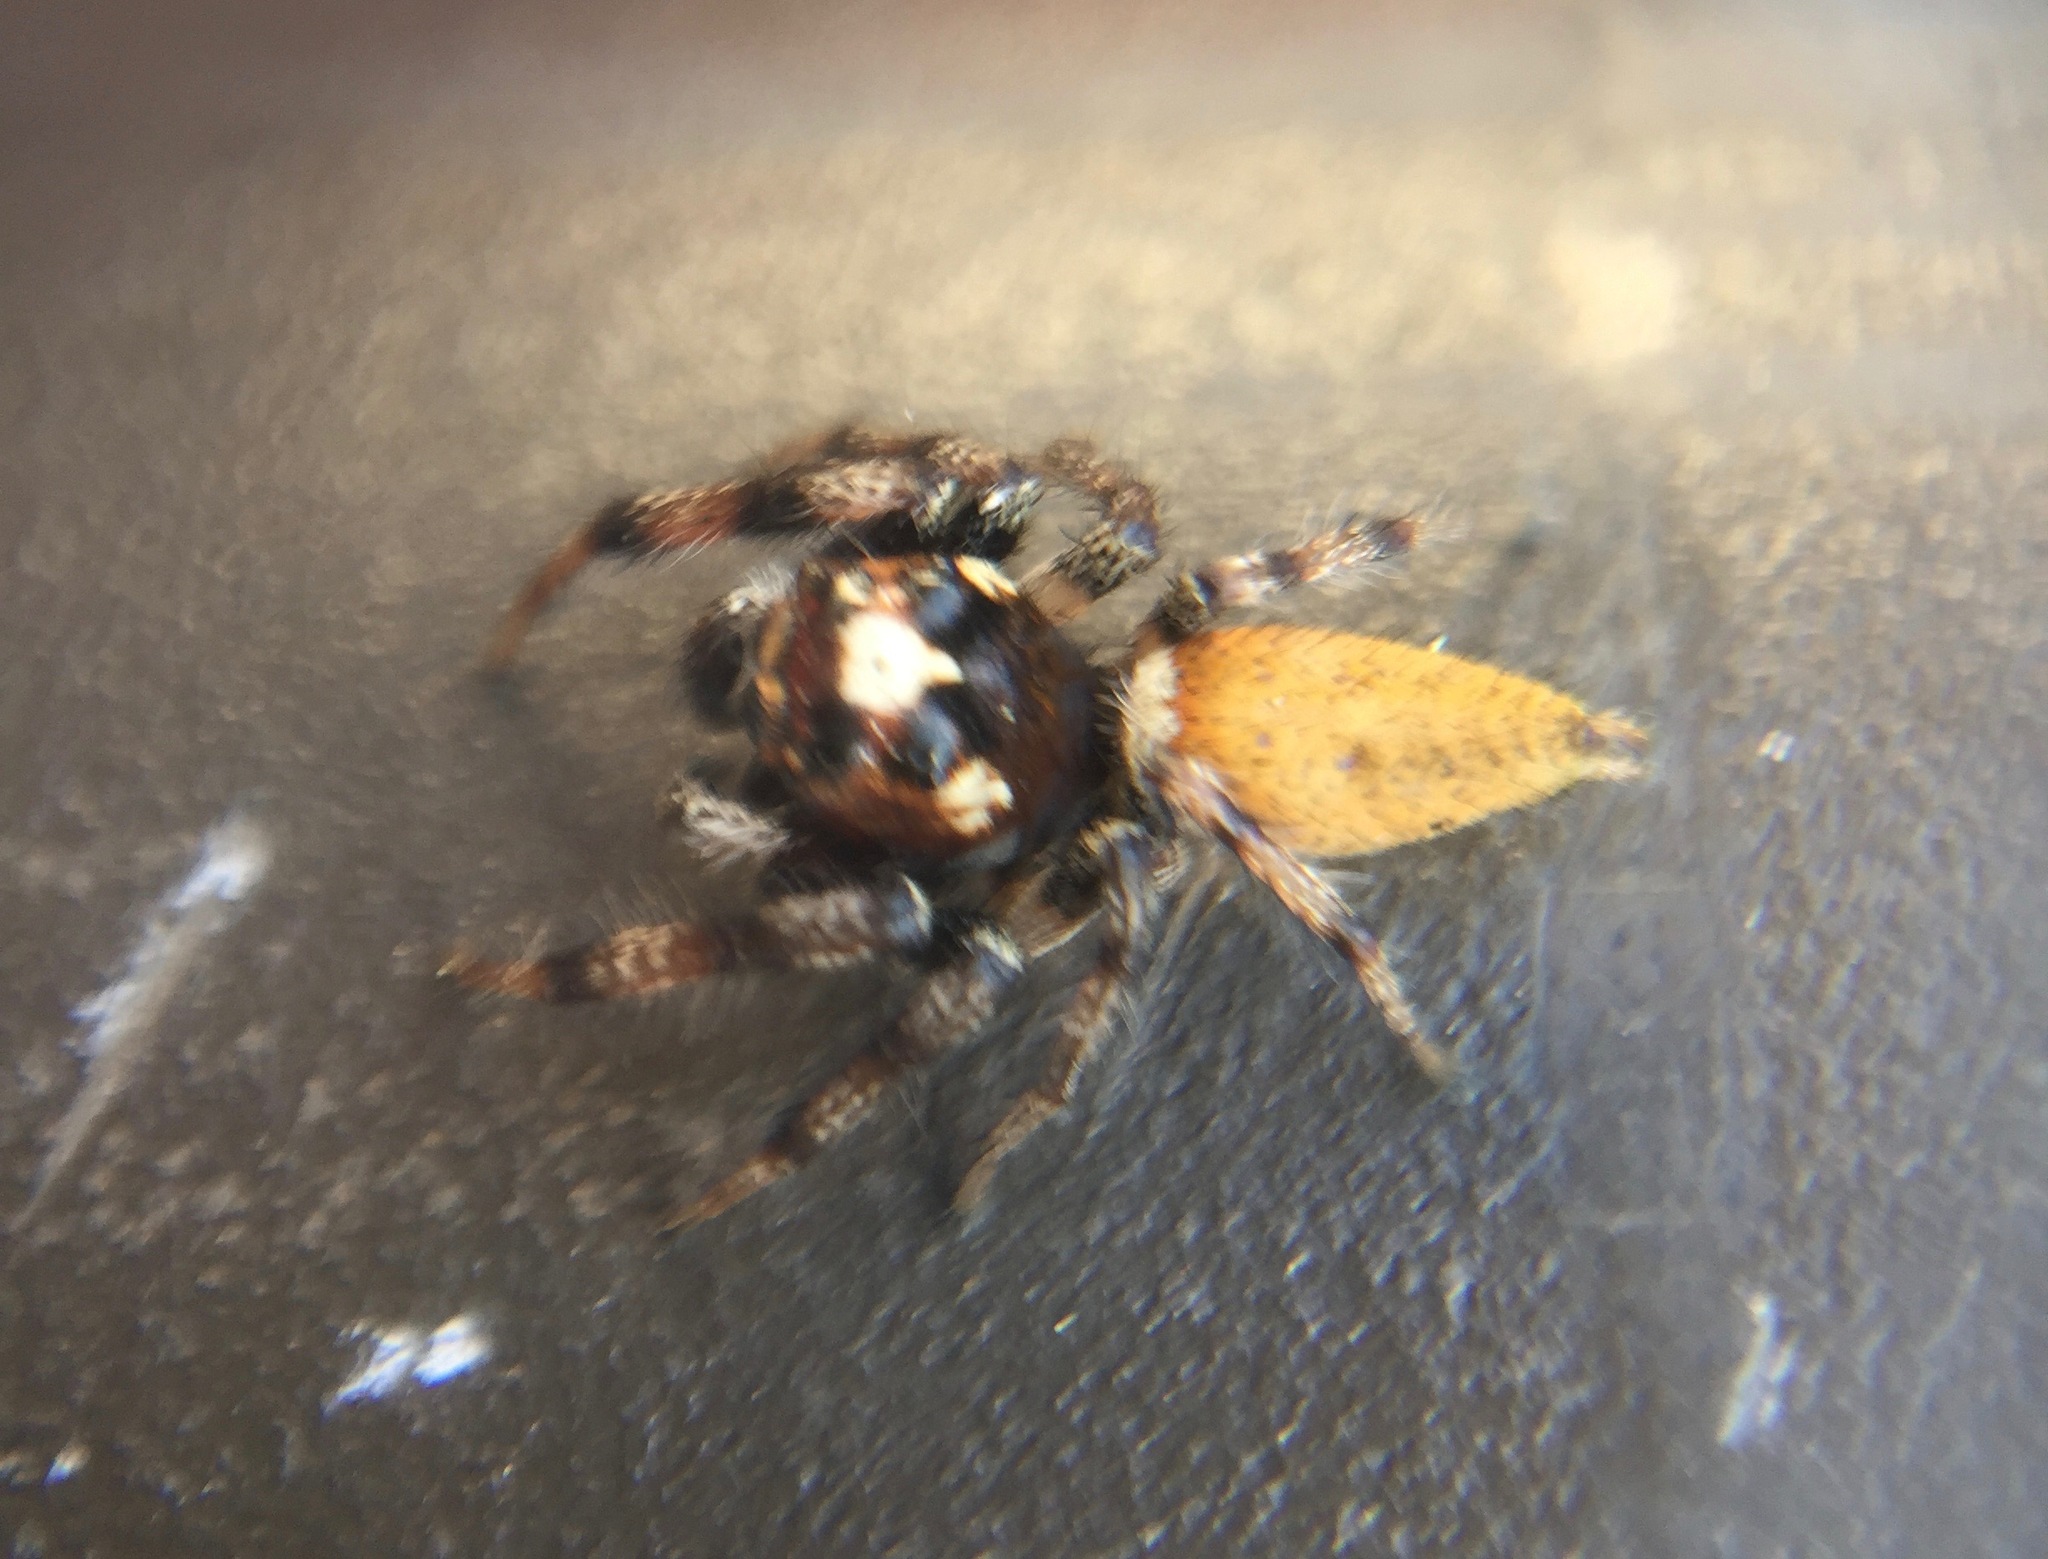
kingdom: Animalia
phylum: Arthropoda
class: Arachnida
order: Araneae
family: Salticidae
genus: Colonus
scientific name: Colonus hesperus
